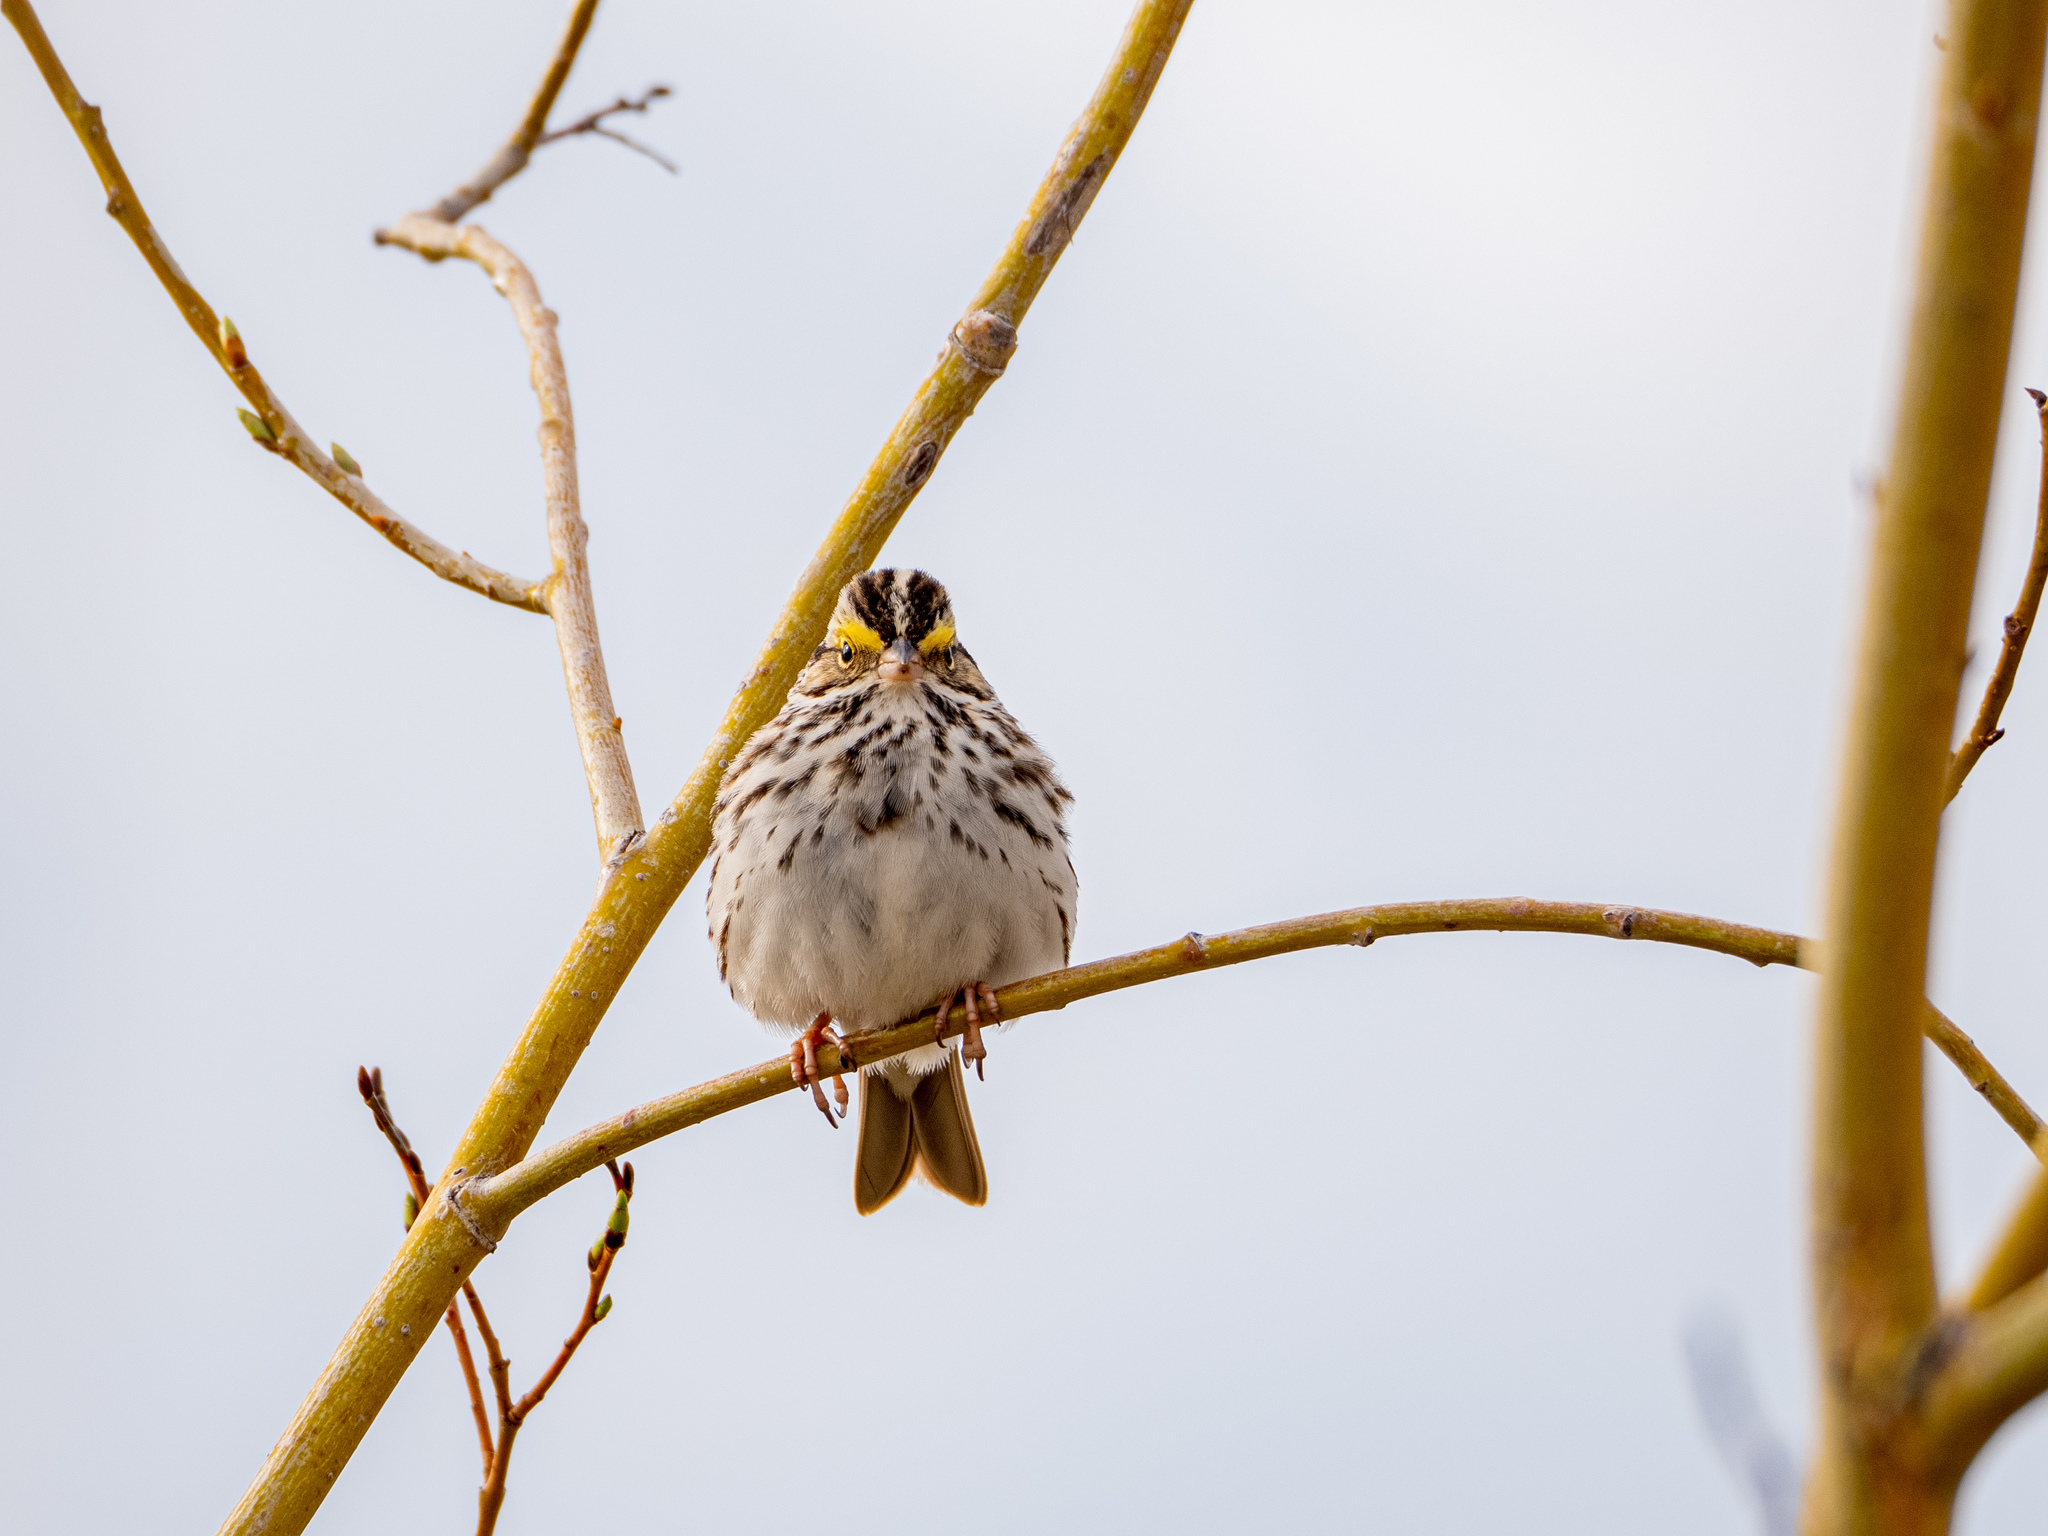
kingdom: Animalia
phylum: Chordata
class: Aves
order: Passeriformes
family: Passerellidae
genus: Passerculus
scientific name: Passerculus sandwichensis
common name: Savannah sparrow
